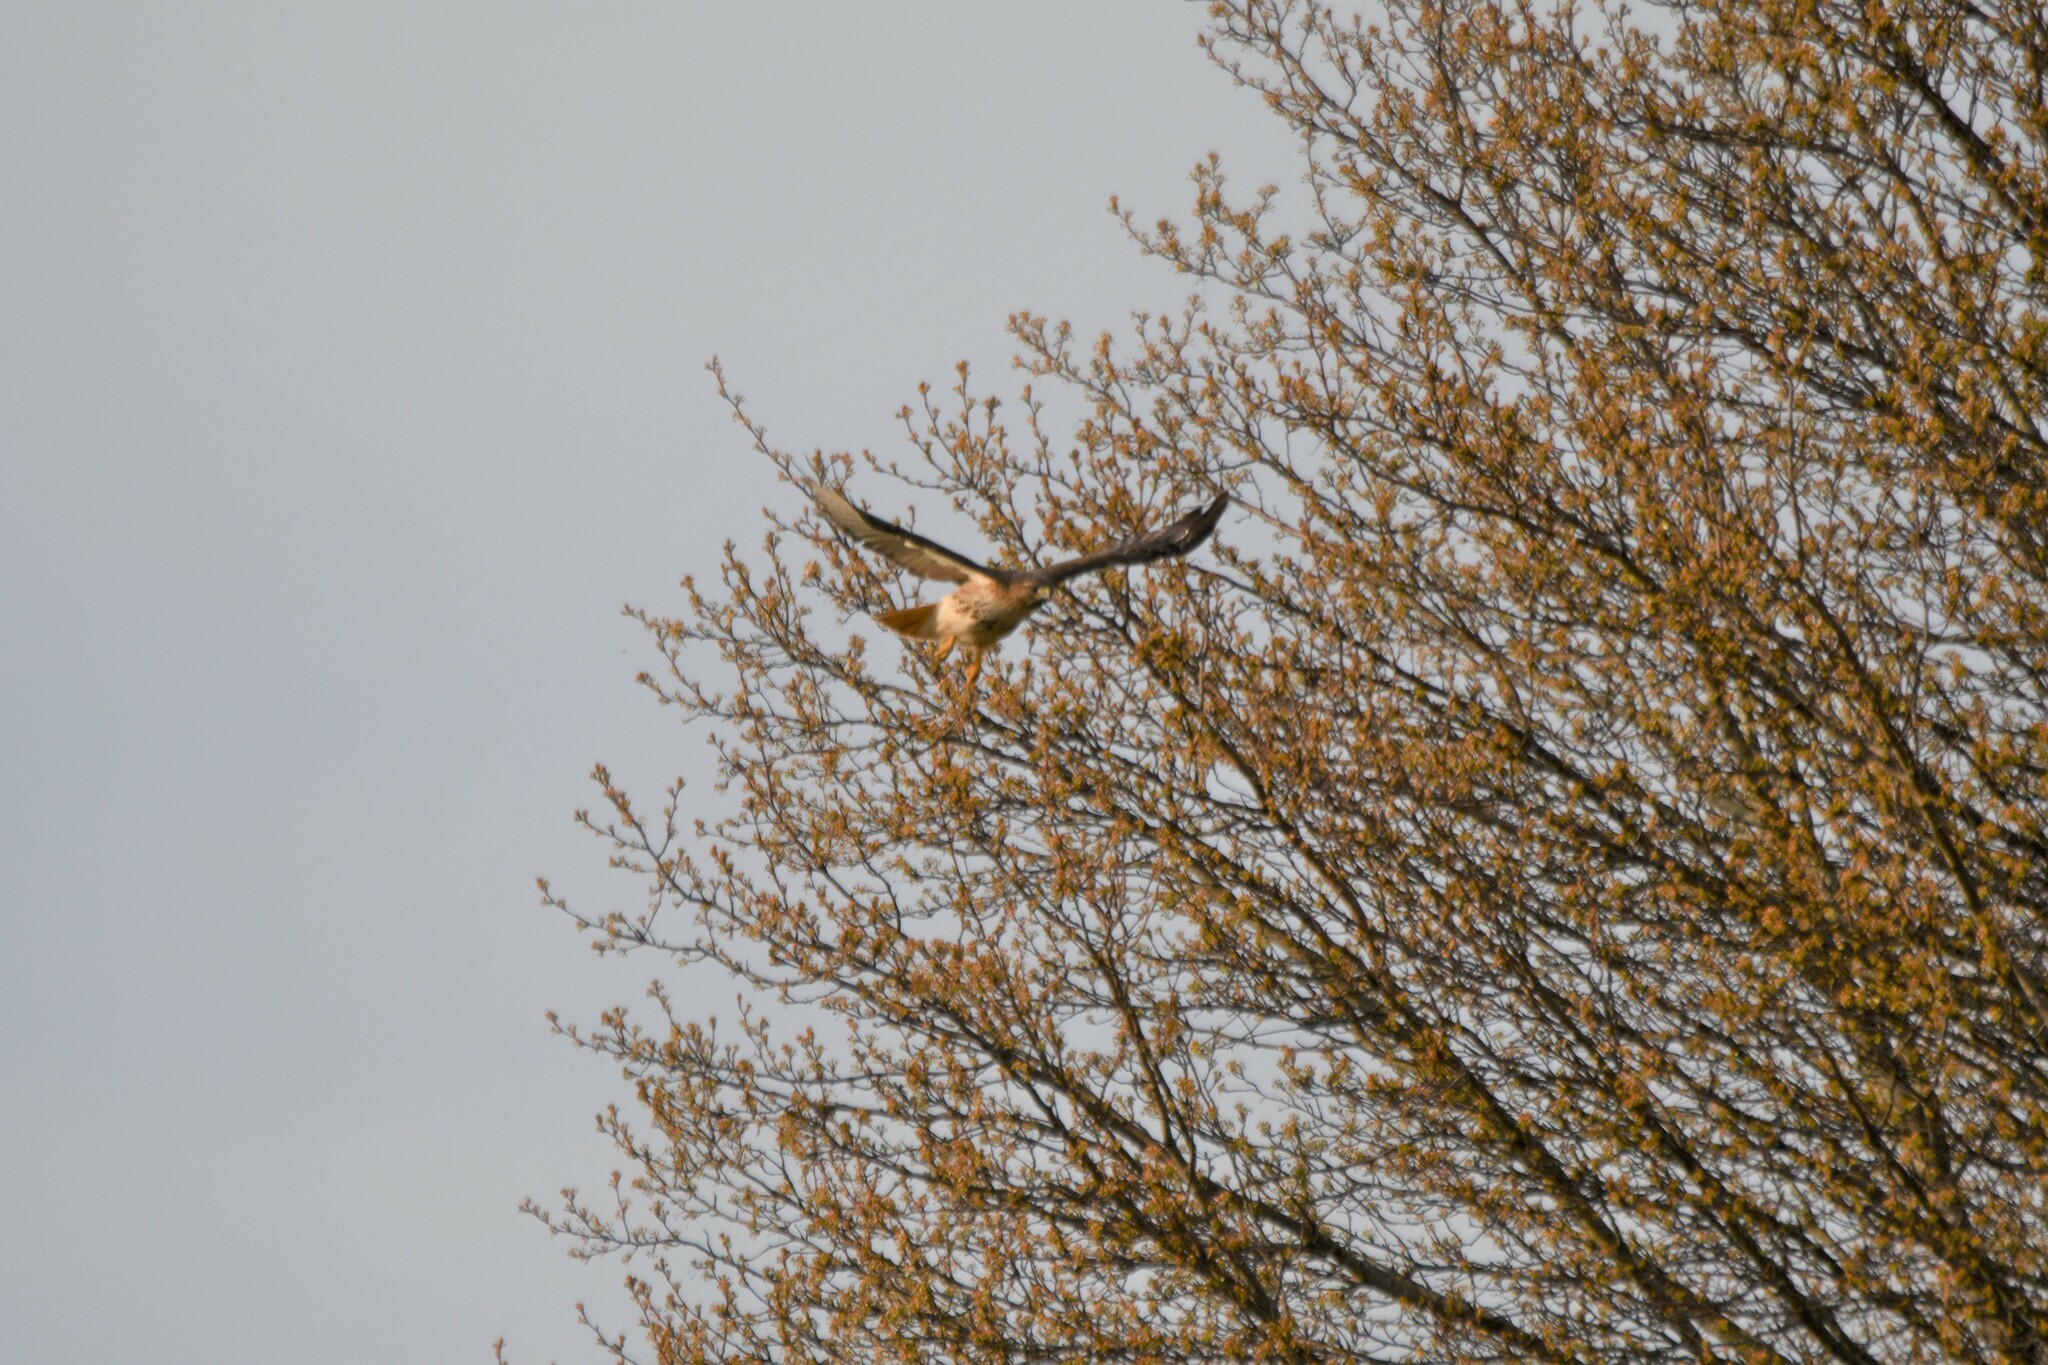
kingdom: Animalia
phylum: Chordata
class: Aves
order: Accipitriformes
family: Accipitridae
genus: Buteo
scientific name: Buteo jamaicensis
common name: Red-tailed hawk
